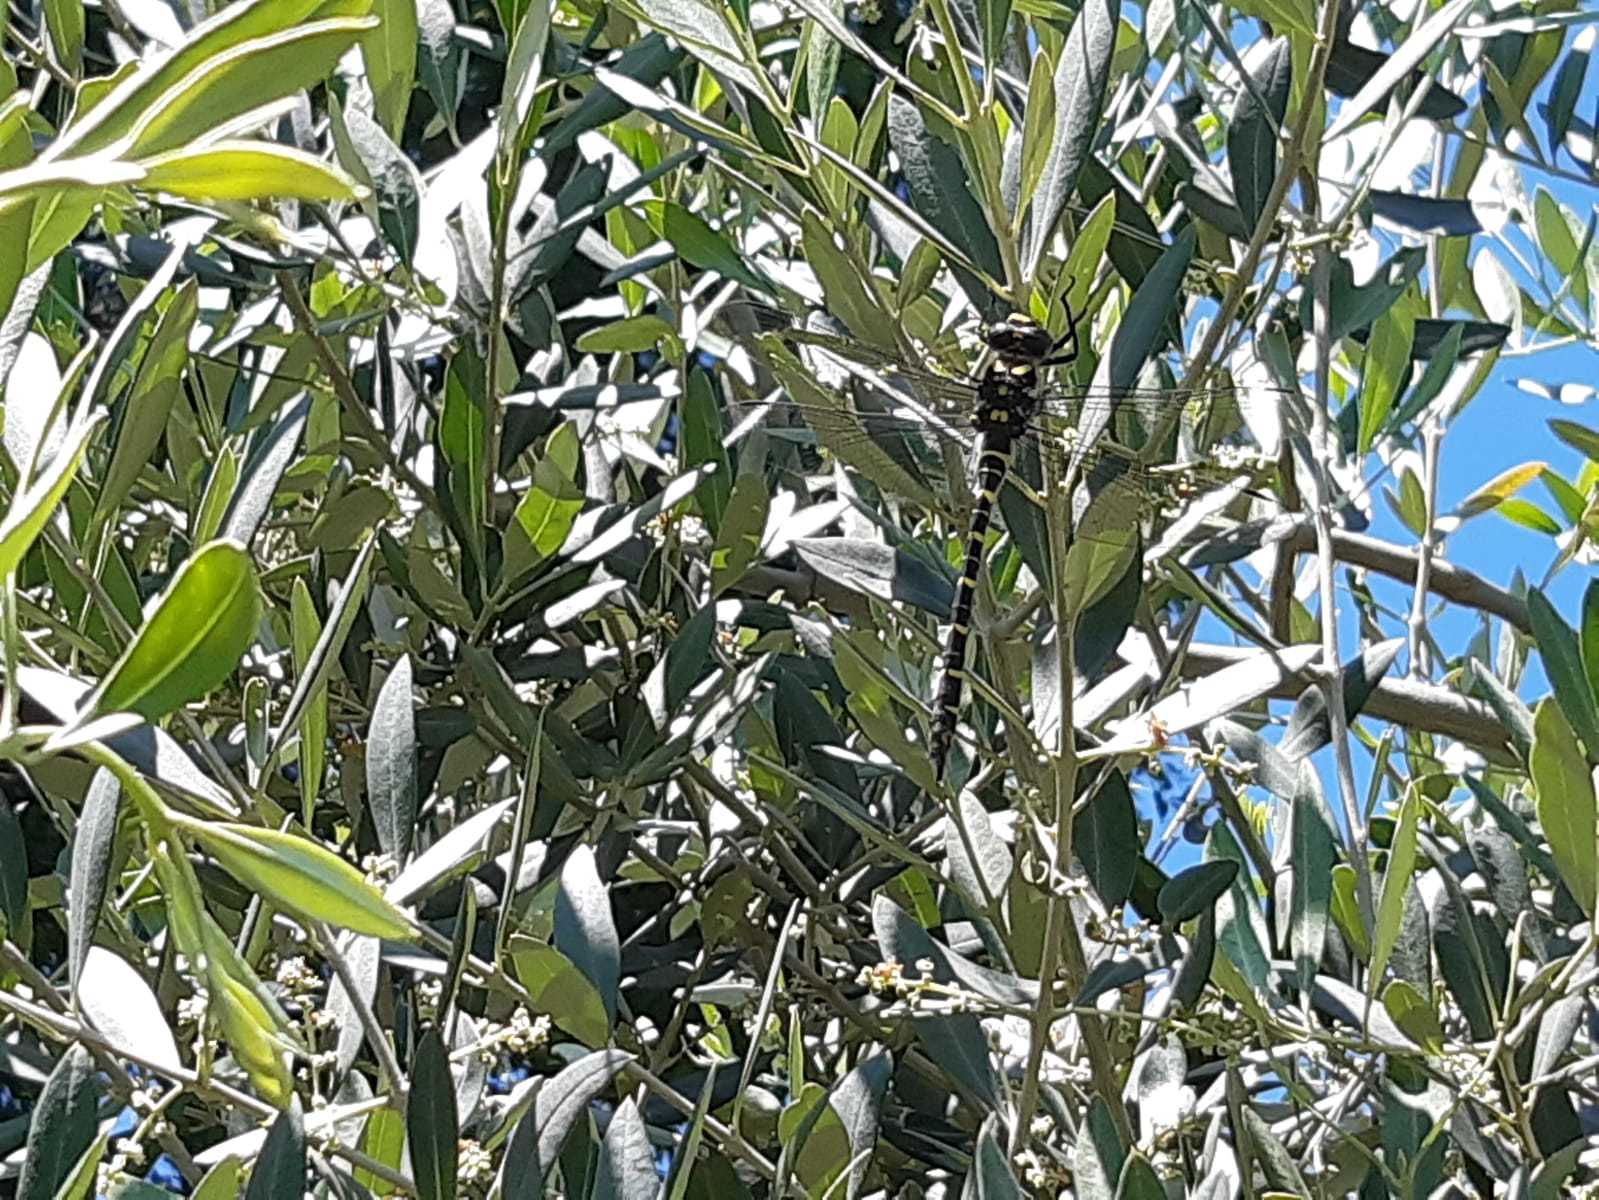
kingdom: Animalia
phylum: Arthropoda
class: Insecta
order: Odonata
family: Cordulegastridae
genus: Cordulegaster
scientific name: Cordulegaster boltonii
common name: Golden-ringed dragonfly
